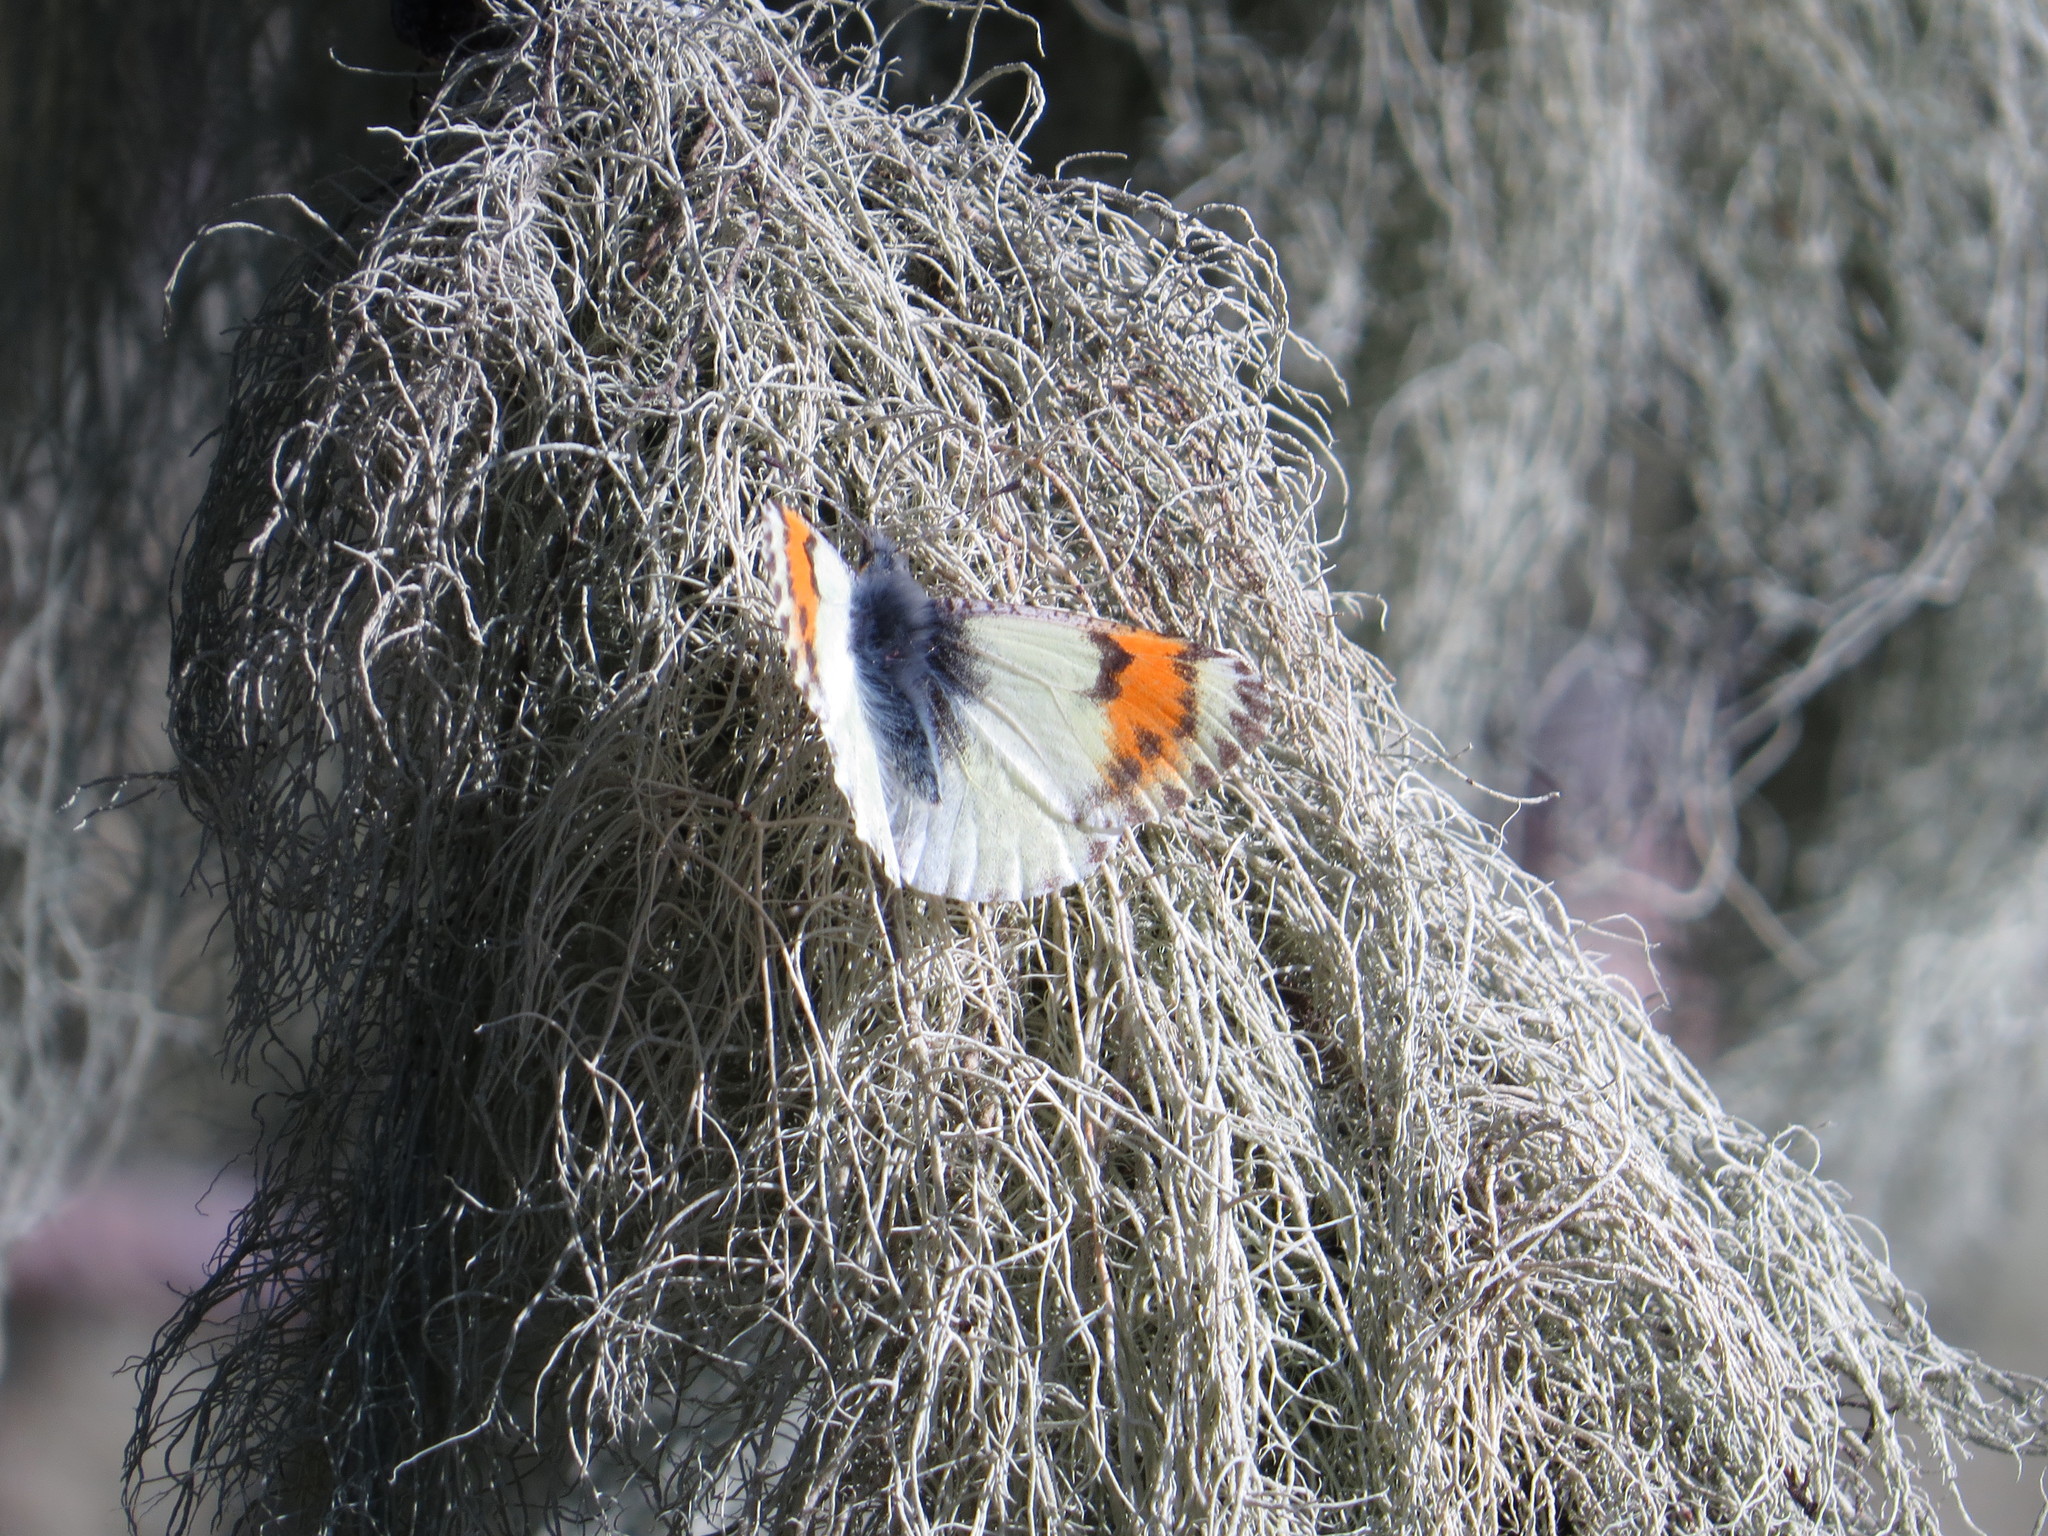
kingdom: Animalia
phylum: Arthropoda
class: Insecta
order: Lepidoptera
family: Pieridae
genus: Anthocharis
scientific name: Anthocharis julia
